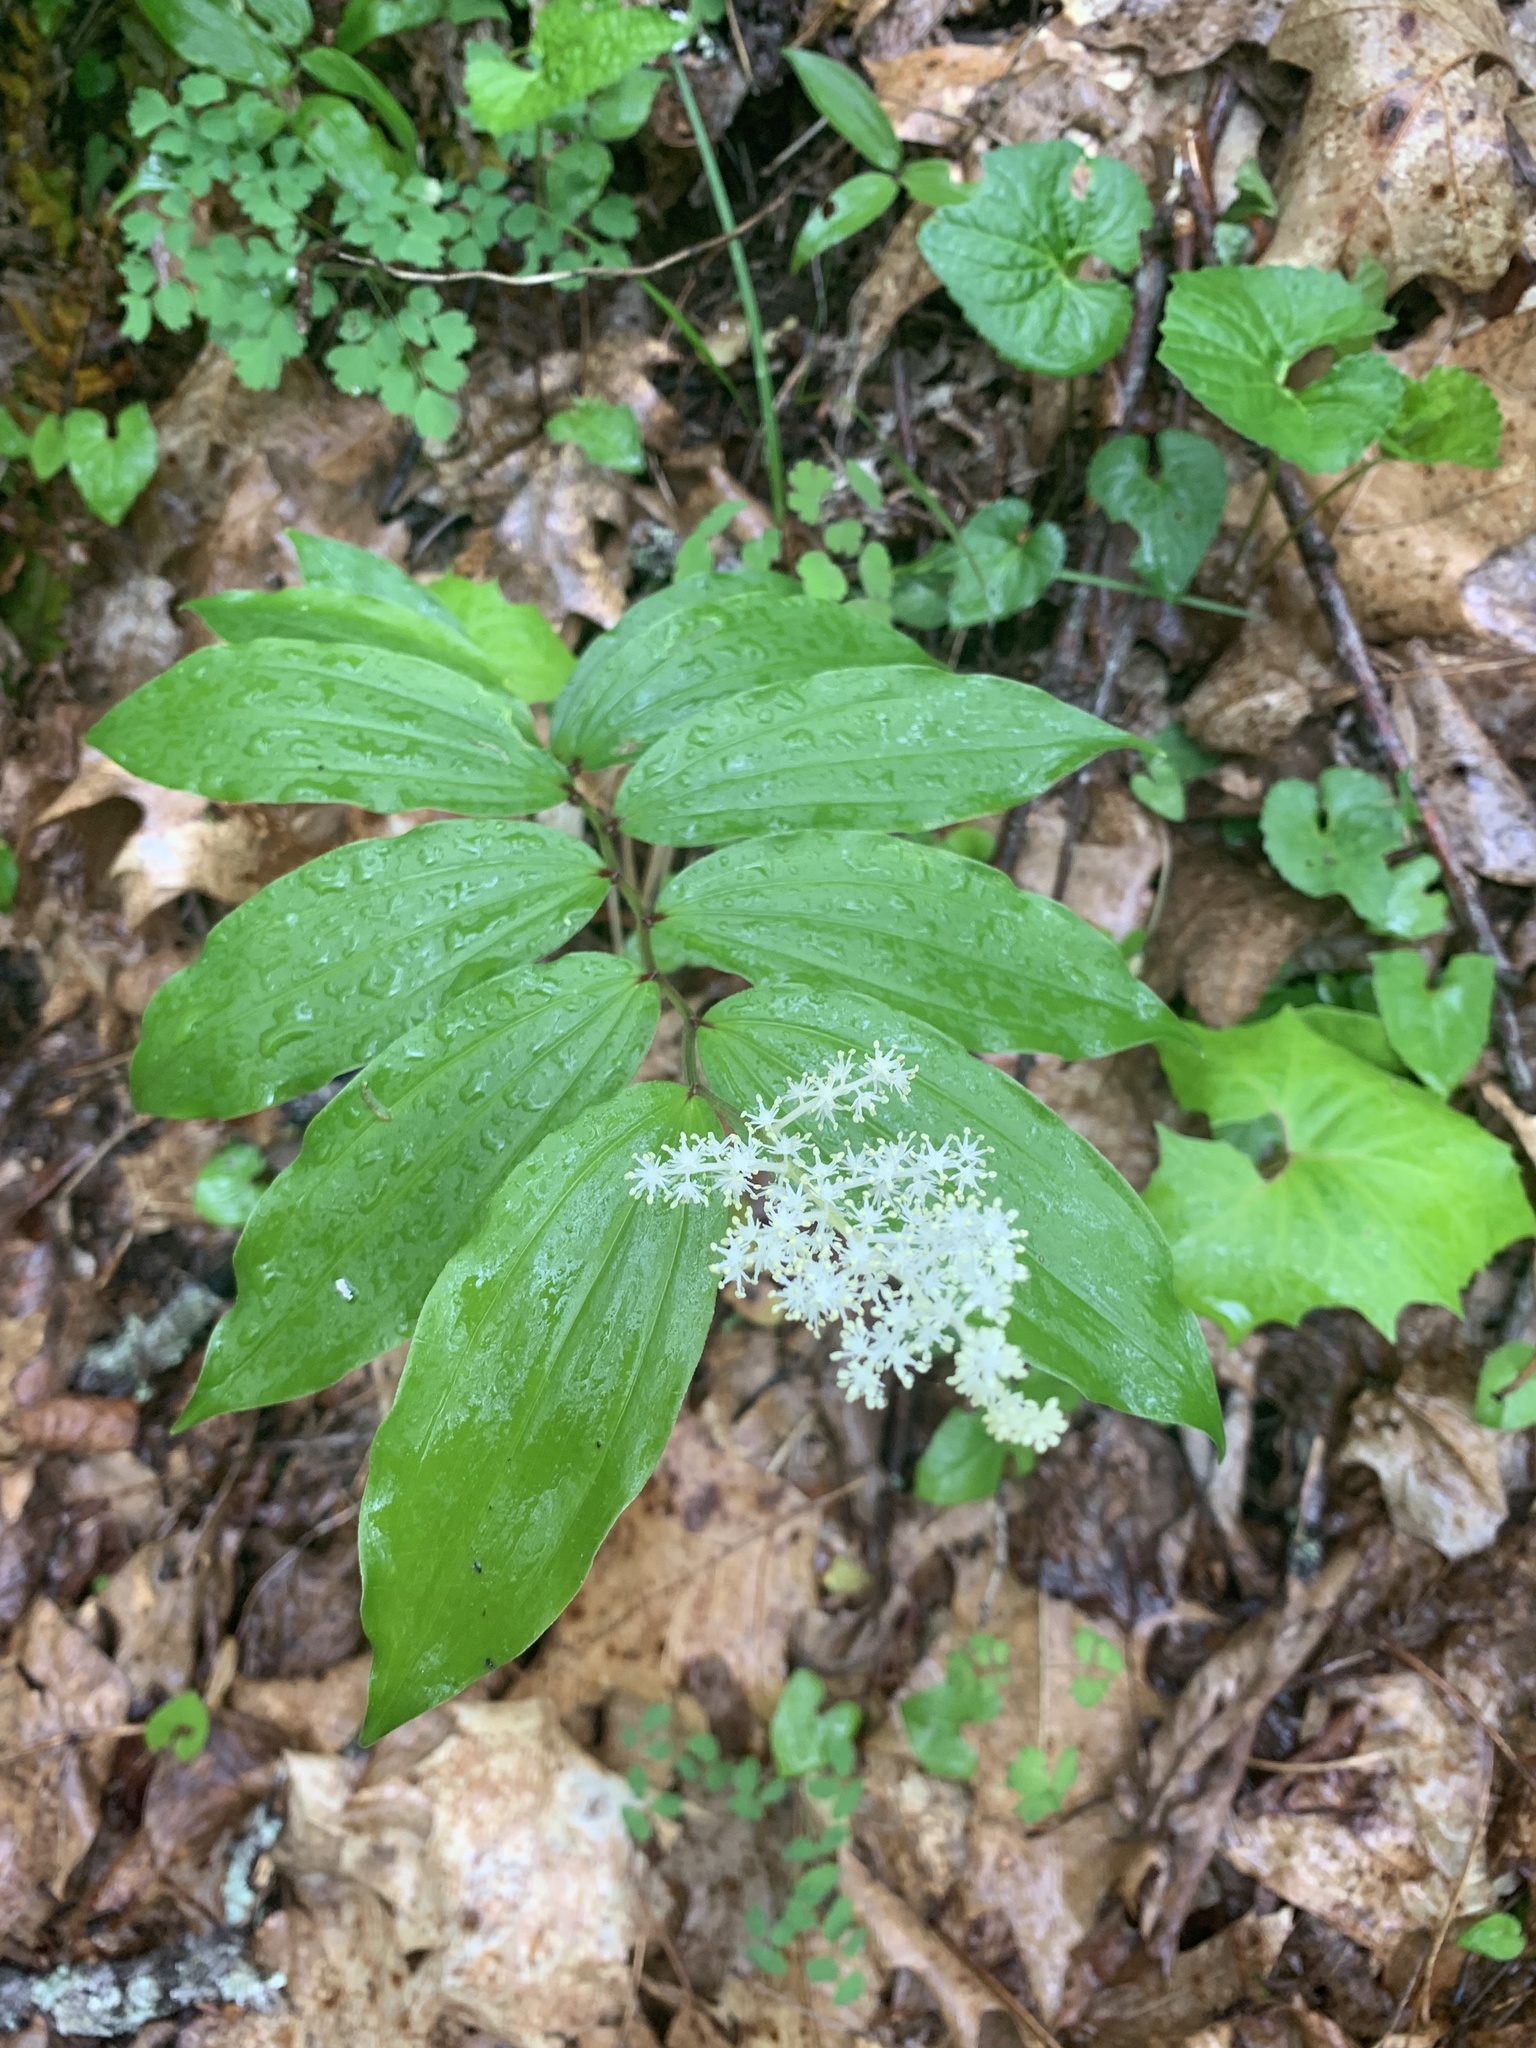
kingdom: Plantae
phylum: Tracheophyta
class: Liliopsida
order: Asparagales
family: Asparagaceae
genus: Maianthemum
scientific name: Maianthemum racemosum
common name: False spikenard
